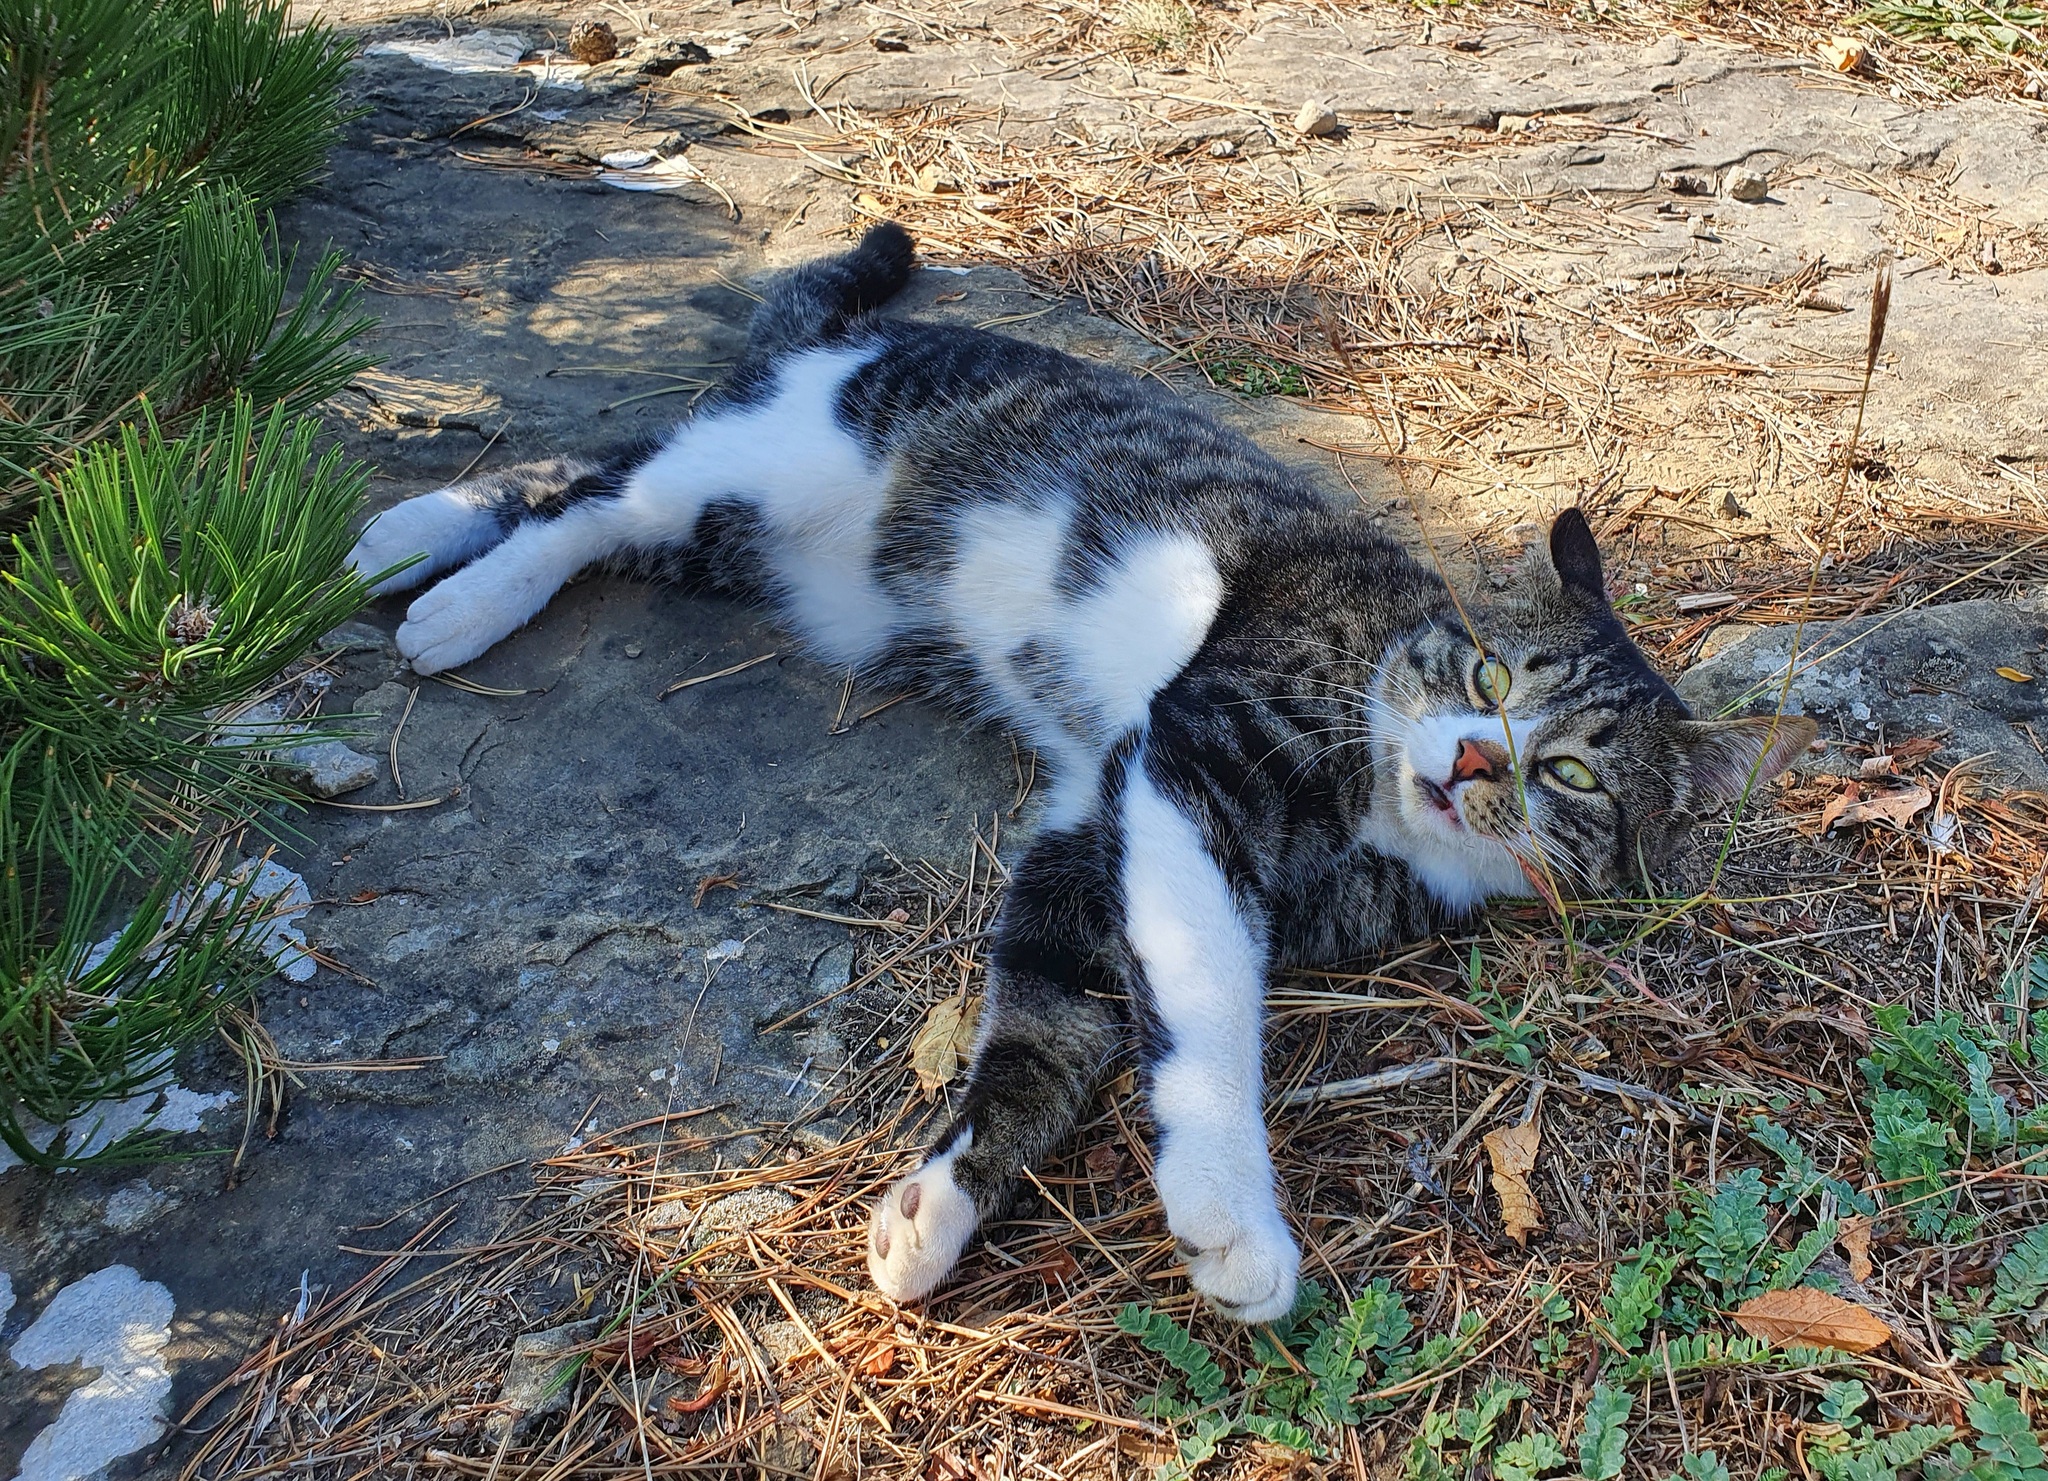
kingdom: Animalia
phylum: Chordata
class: Mammalia
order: Carnivora
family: Felidae
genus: Felis
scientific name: Felis catus
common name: Domestic cat
